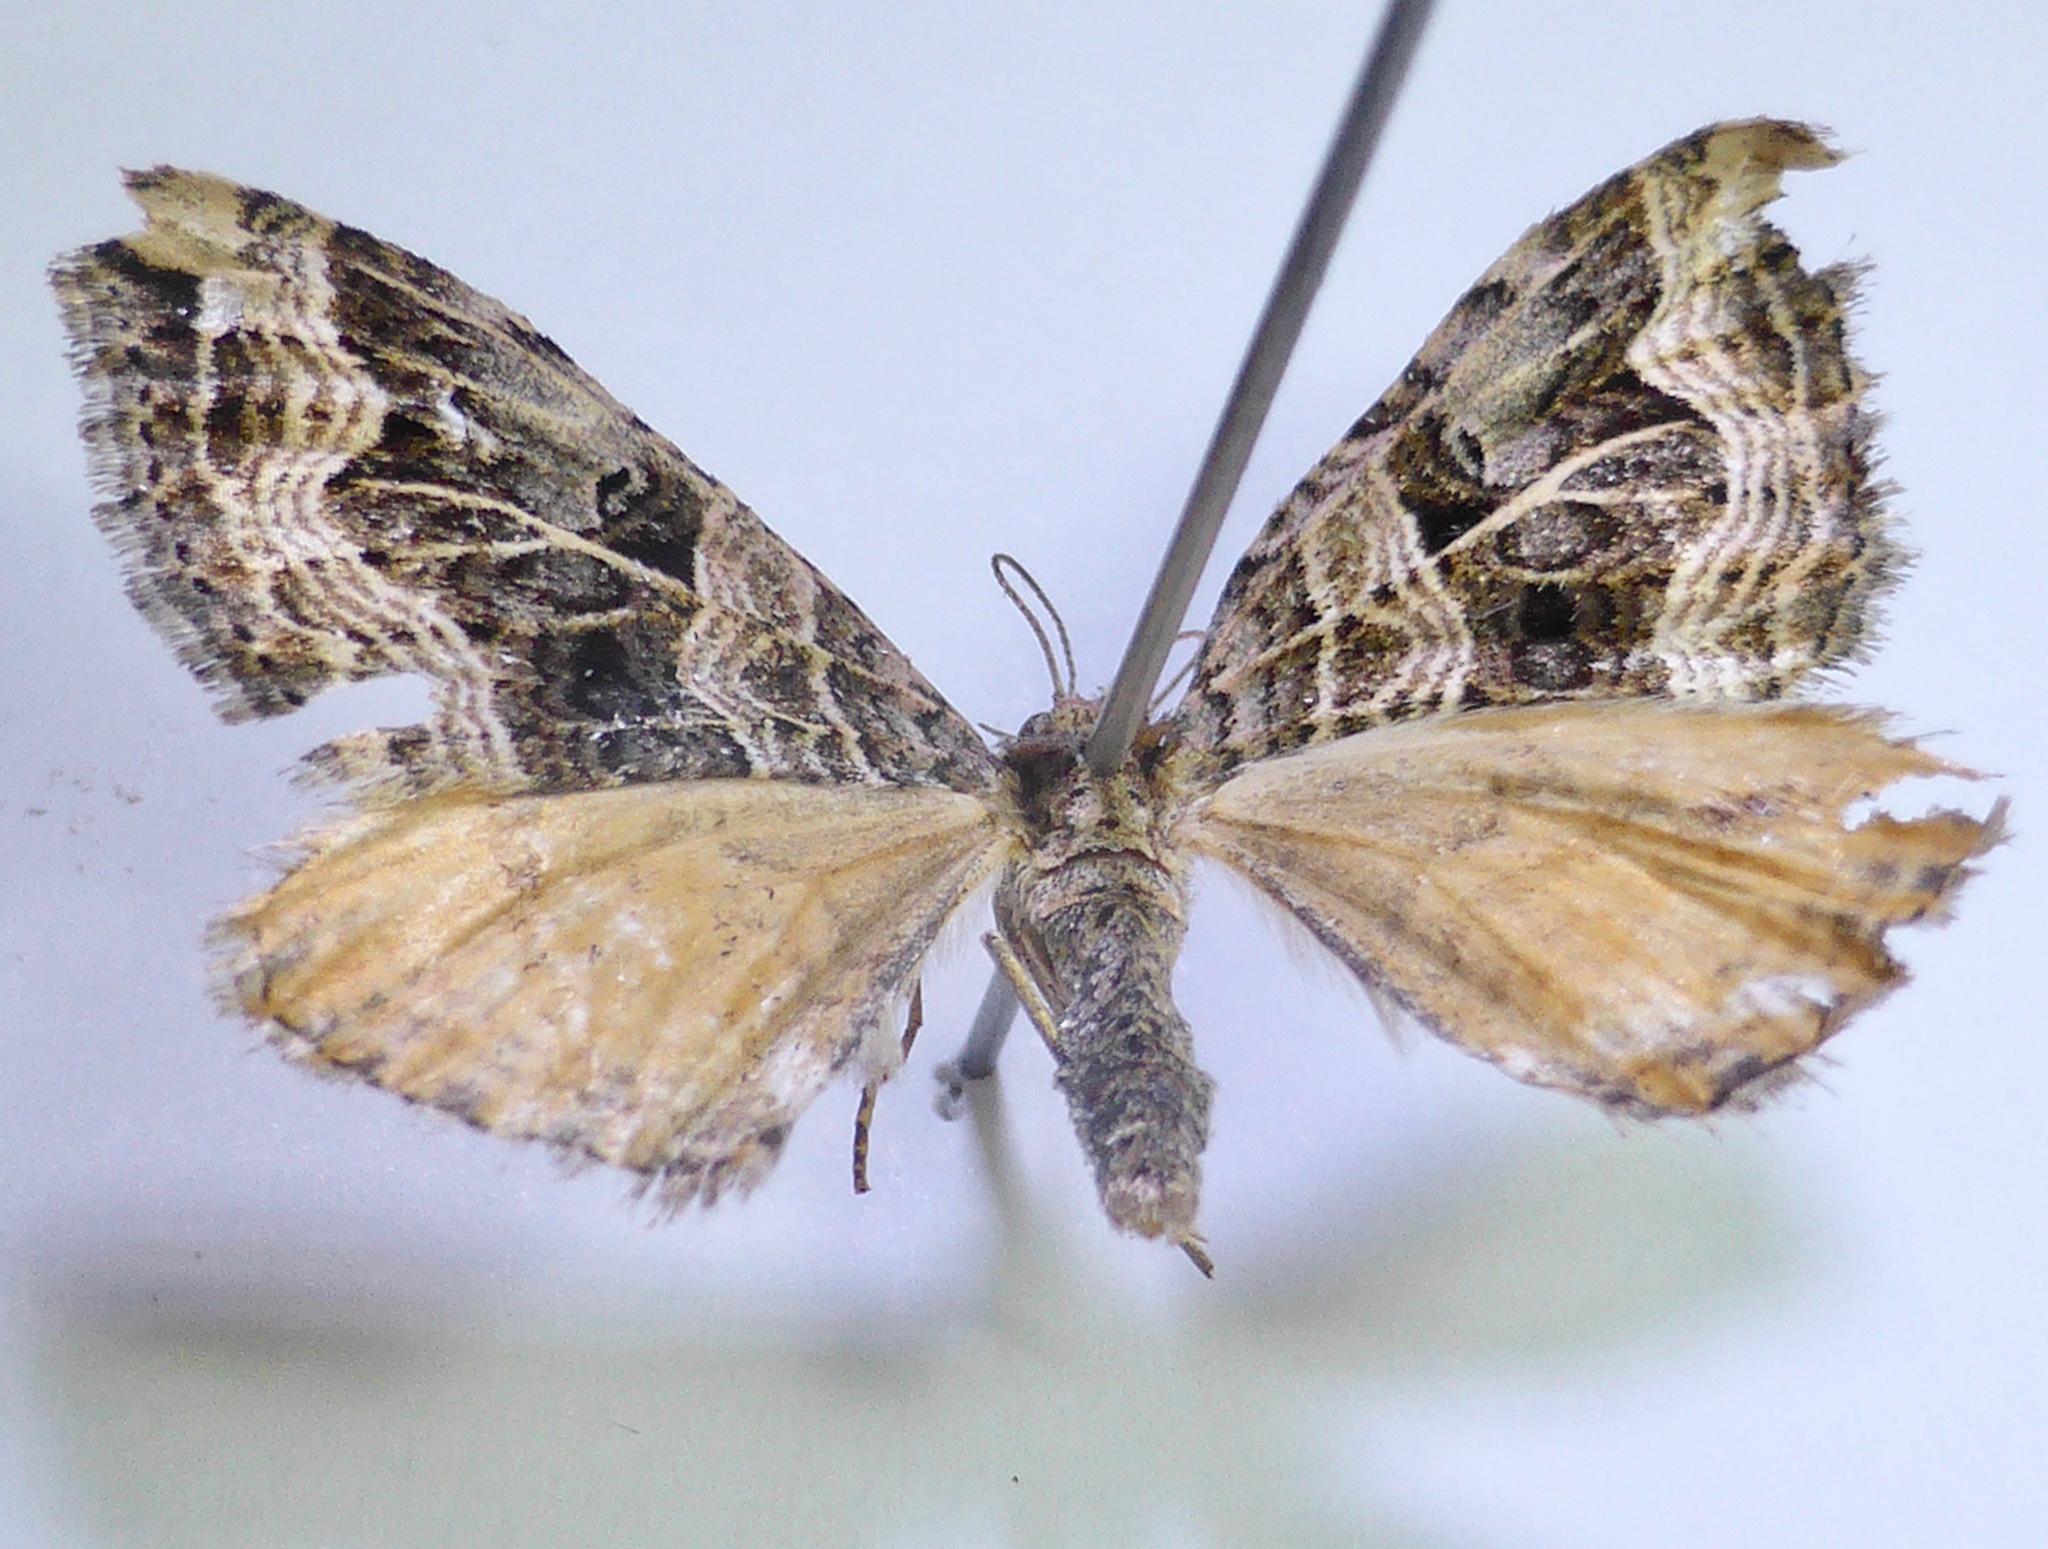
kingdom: Animalia
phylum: Arthropoda
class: Insecta
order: Lepidoptera
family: Geometridae
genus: Xanthorhoe
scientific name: Xanthorhoe semifissata
